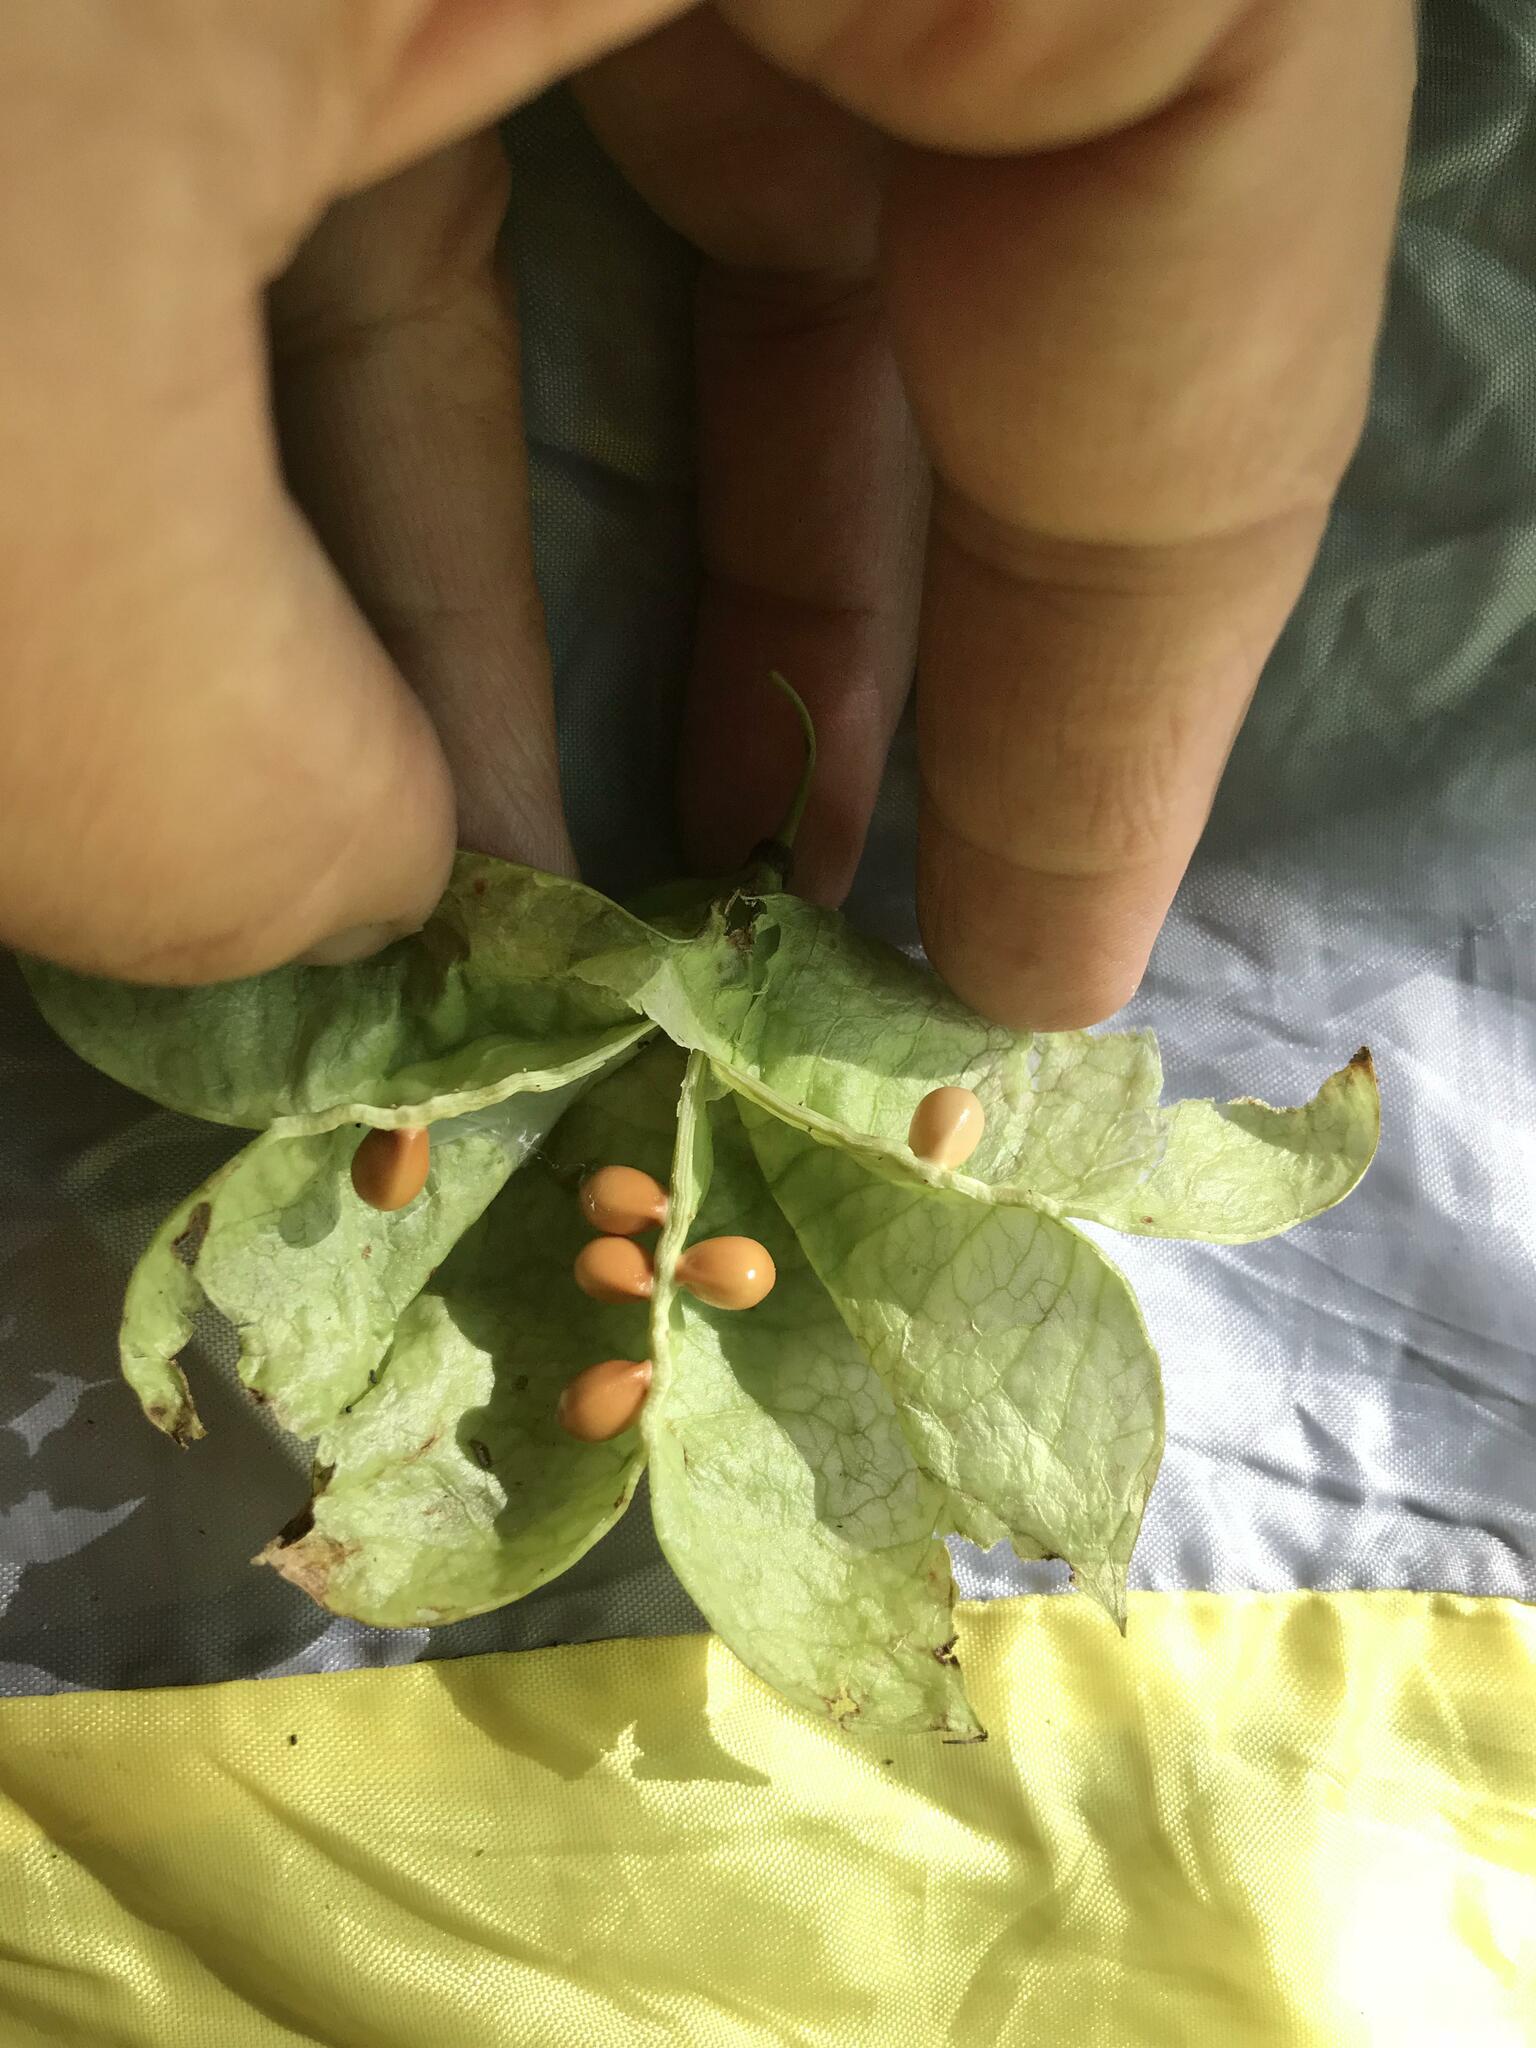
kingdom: Plantae
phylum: Tracheophyta
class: Magnoliopsida
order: Crossosomatales
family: Staphyleaceae
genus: Staphylea
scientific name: Staphylea colchica
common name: Caucasian bladdernut
